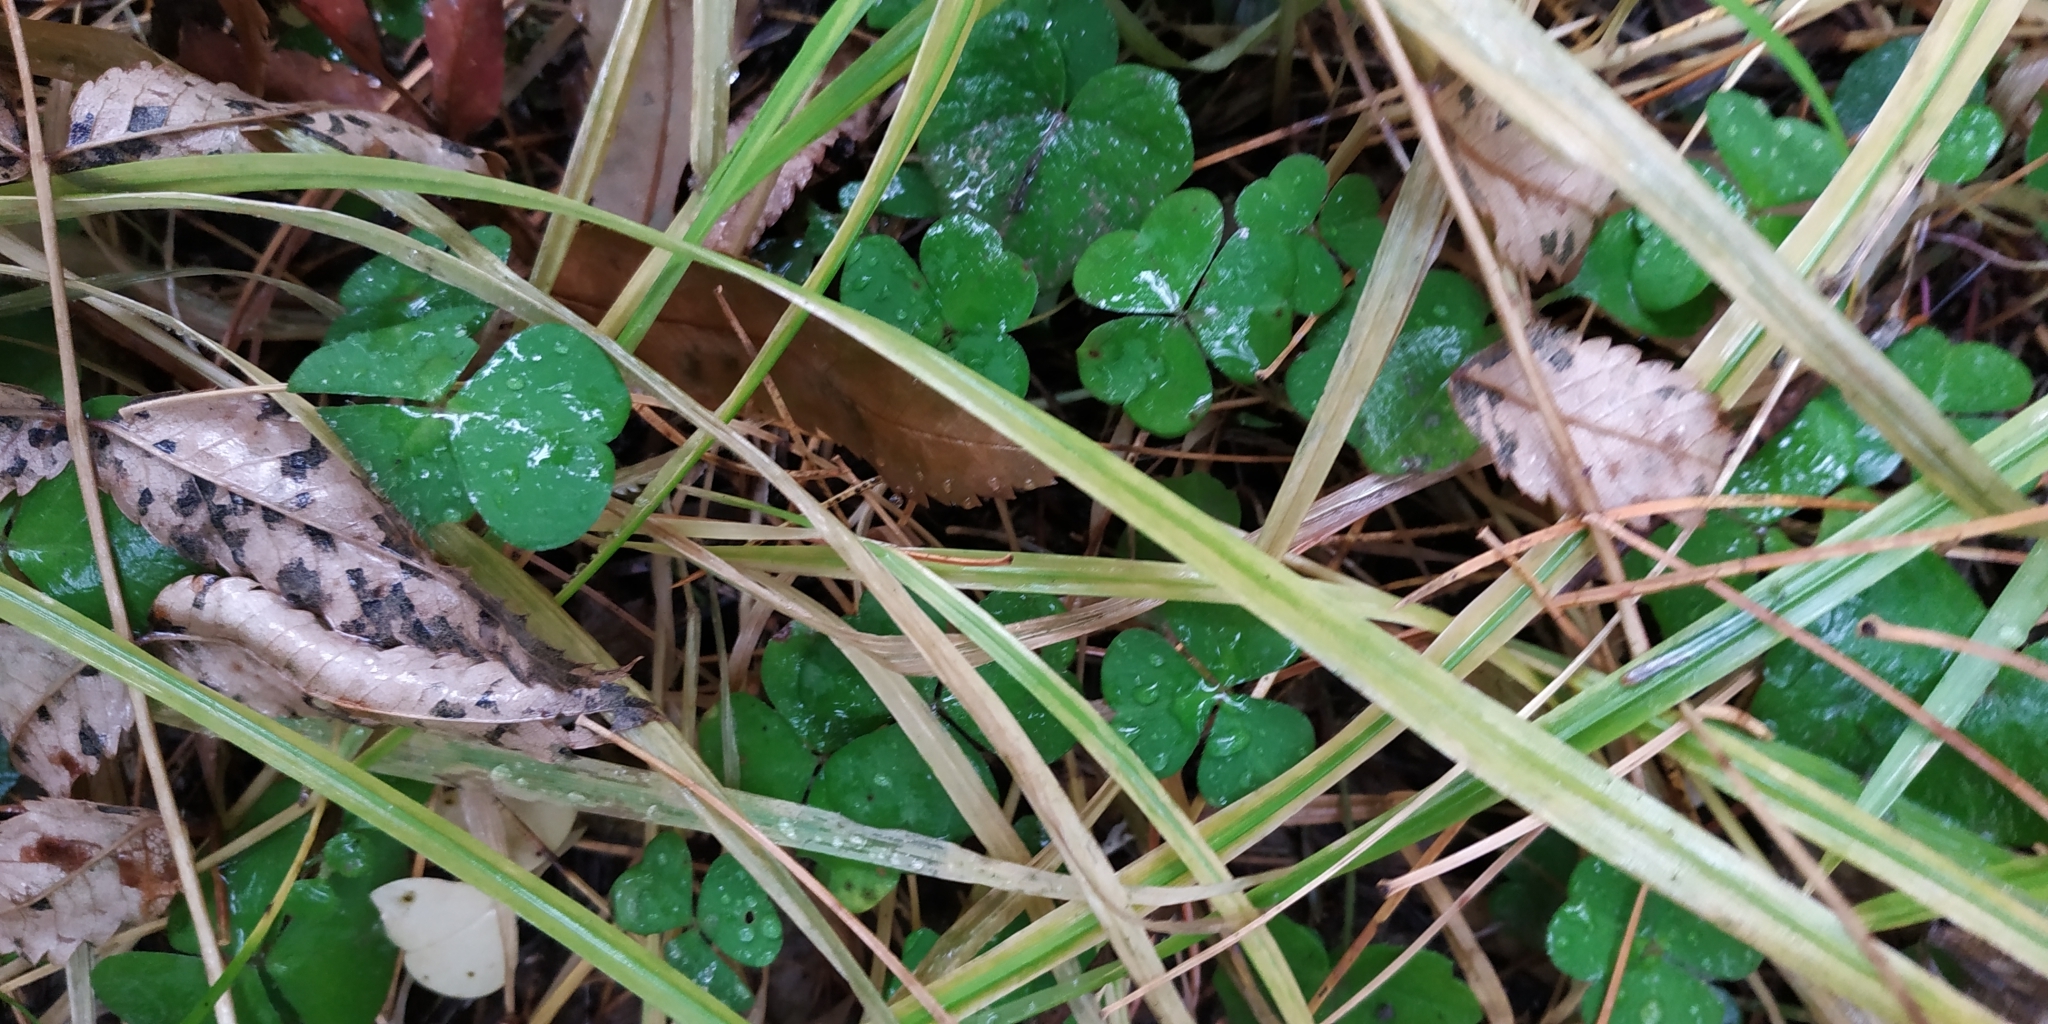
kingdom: Plantae
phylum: Tracheophyta
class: Magnoliopsida
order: Oxalidales
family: Oxalidaceae
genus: Oxalis
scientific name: Oxalis acetosella
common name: Wood-sorrel
